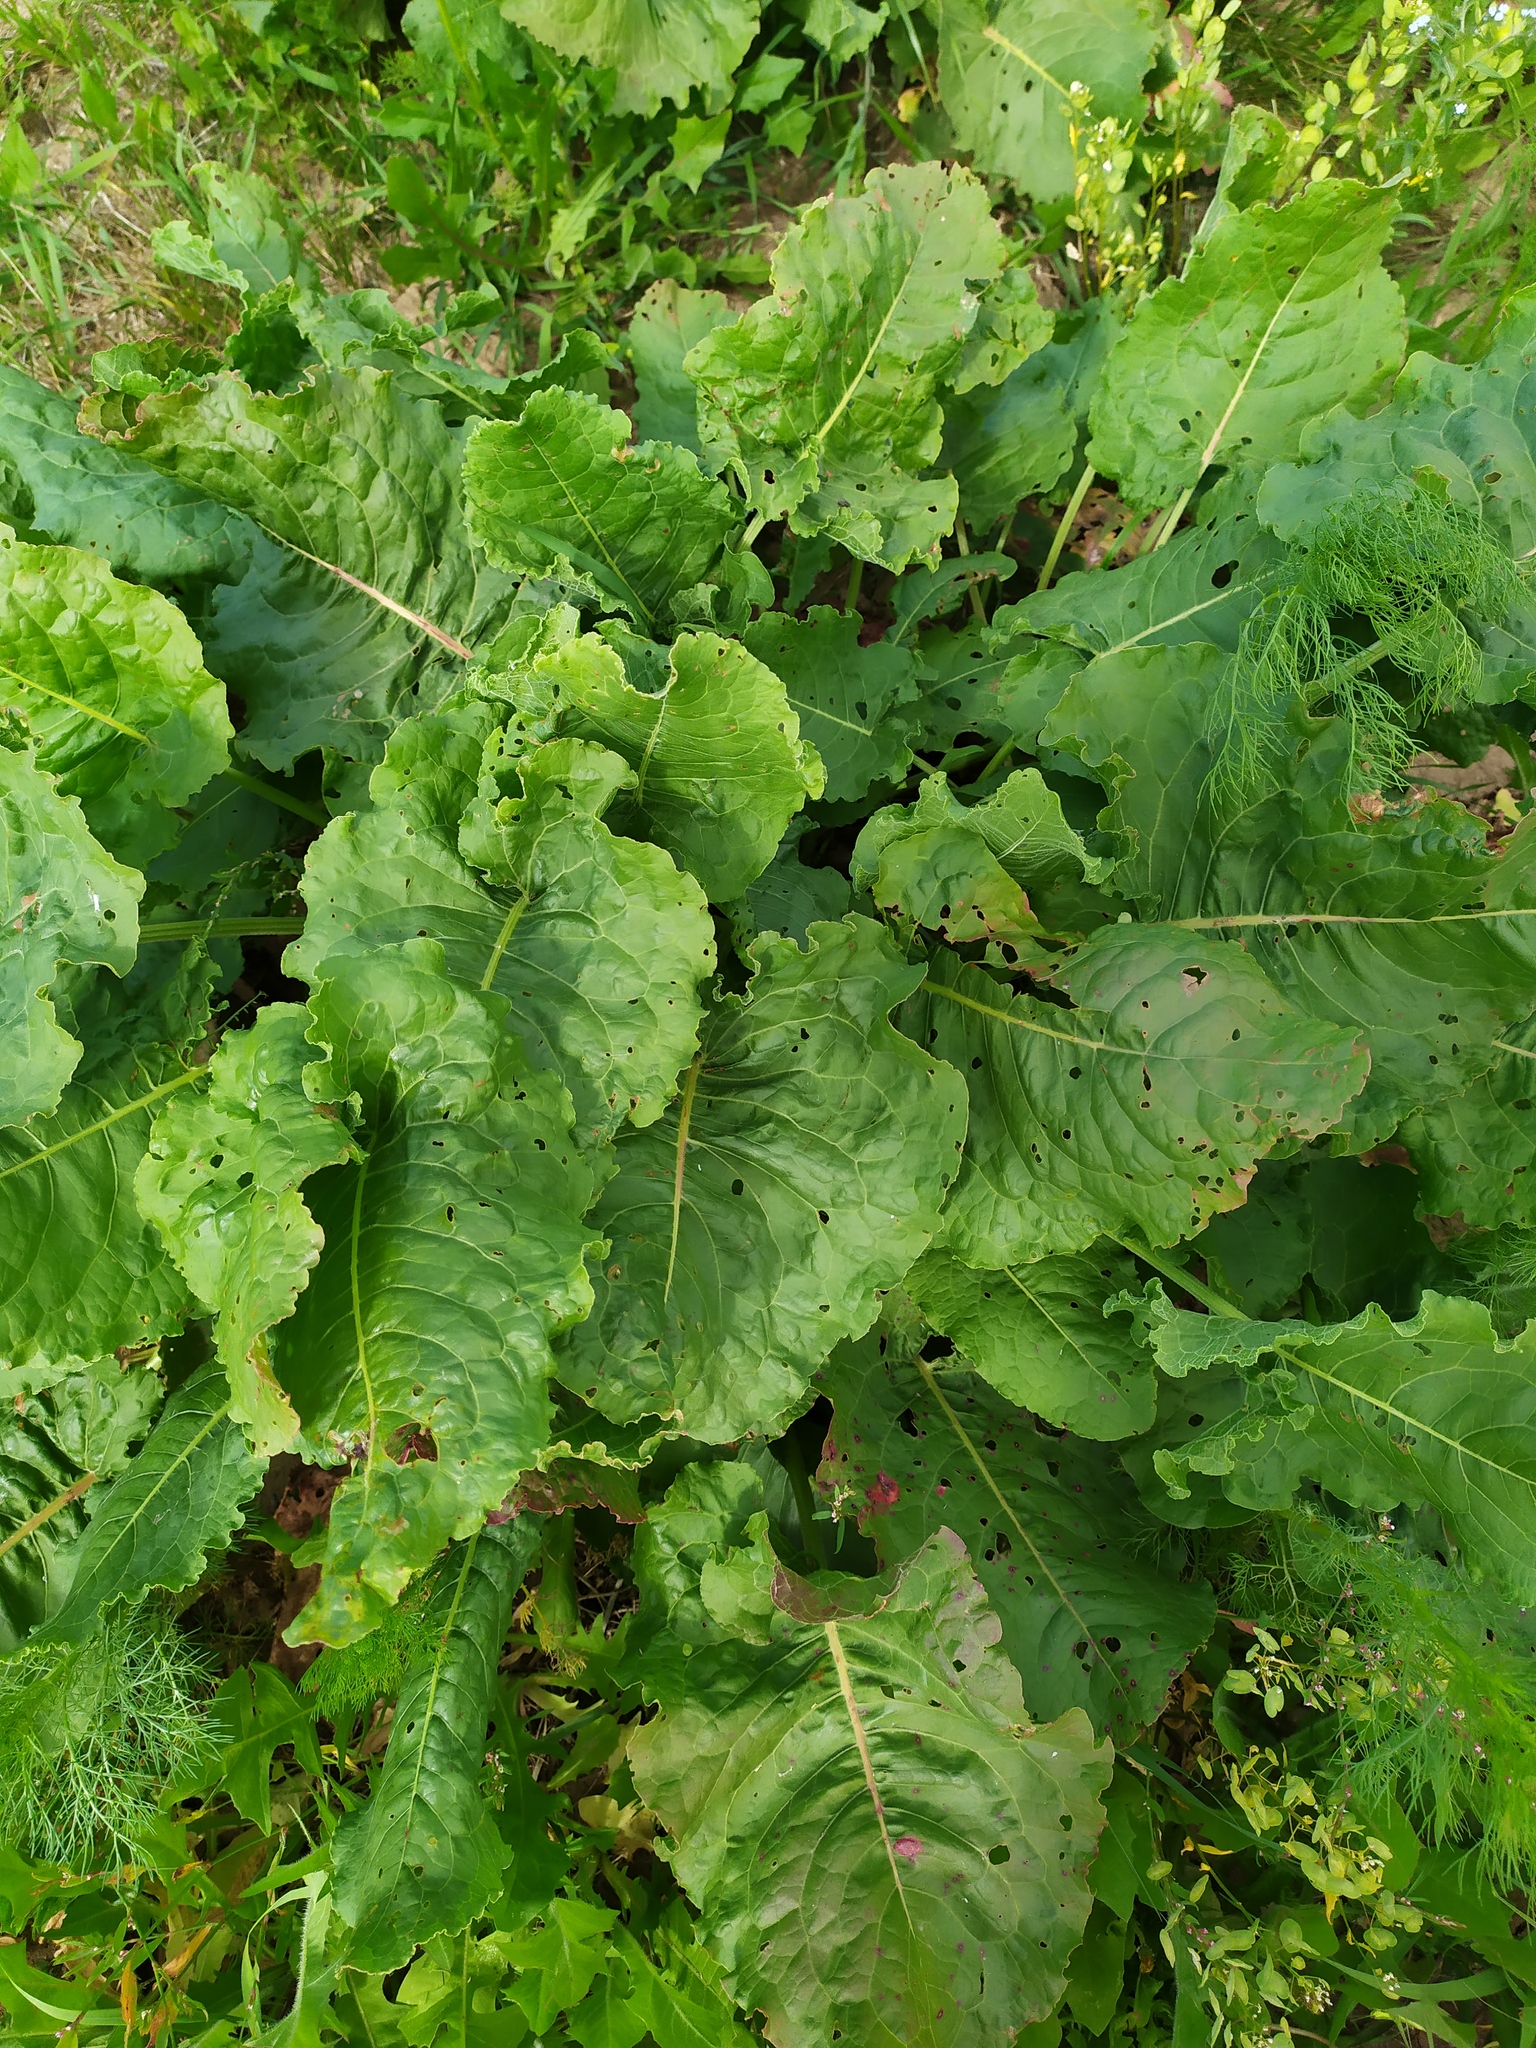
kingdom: Plantae
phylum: Tracheophyta
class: Magnoliopsida
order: Caryophyllales
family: Polygonaceae
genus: Rumex
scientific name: Rumex confertus
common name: Russian dock
